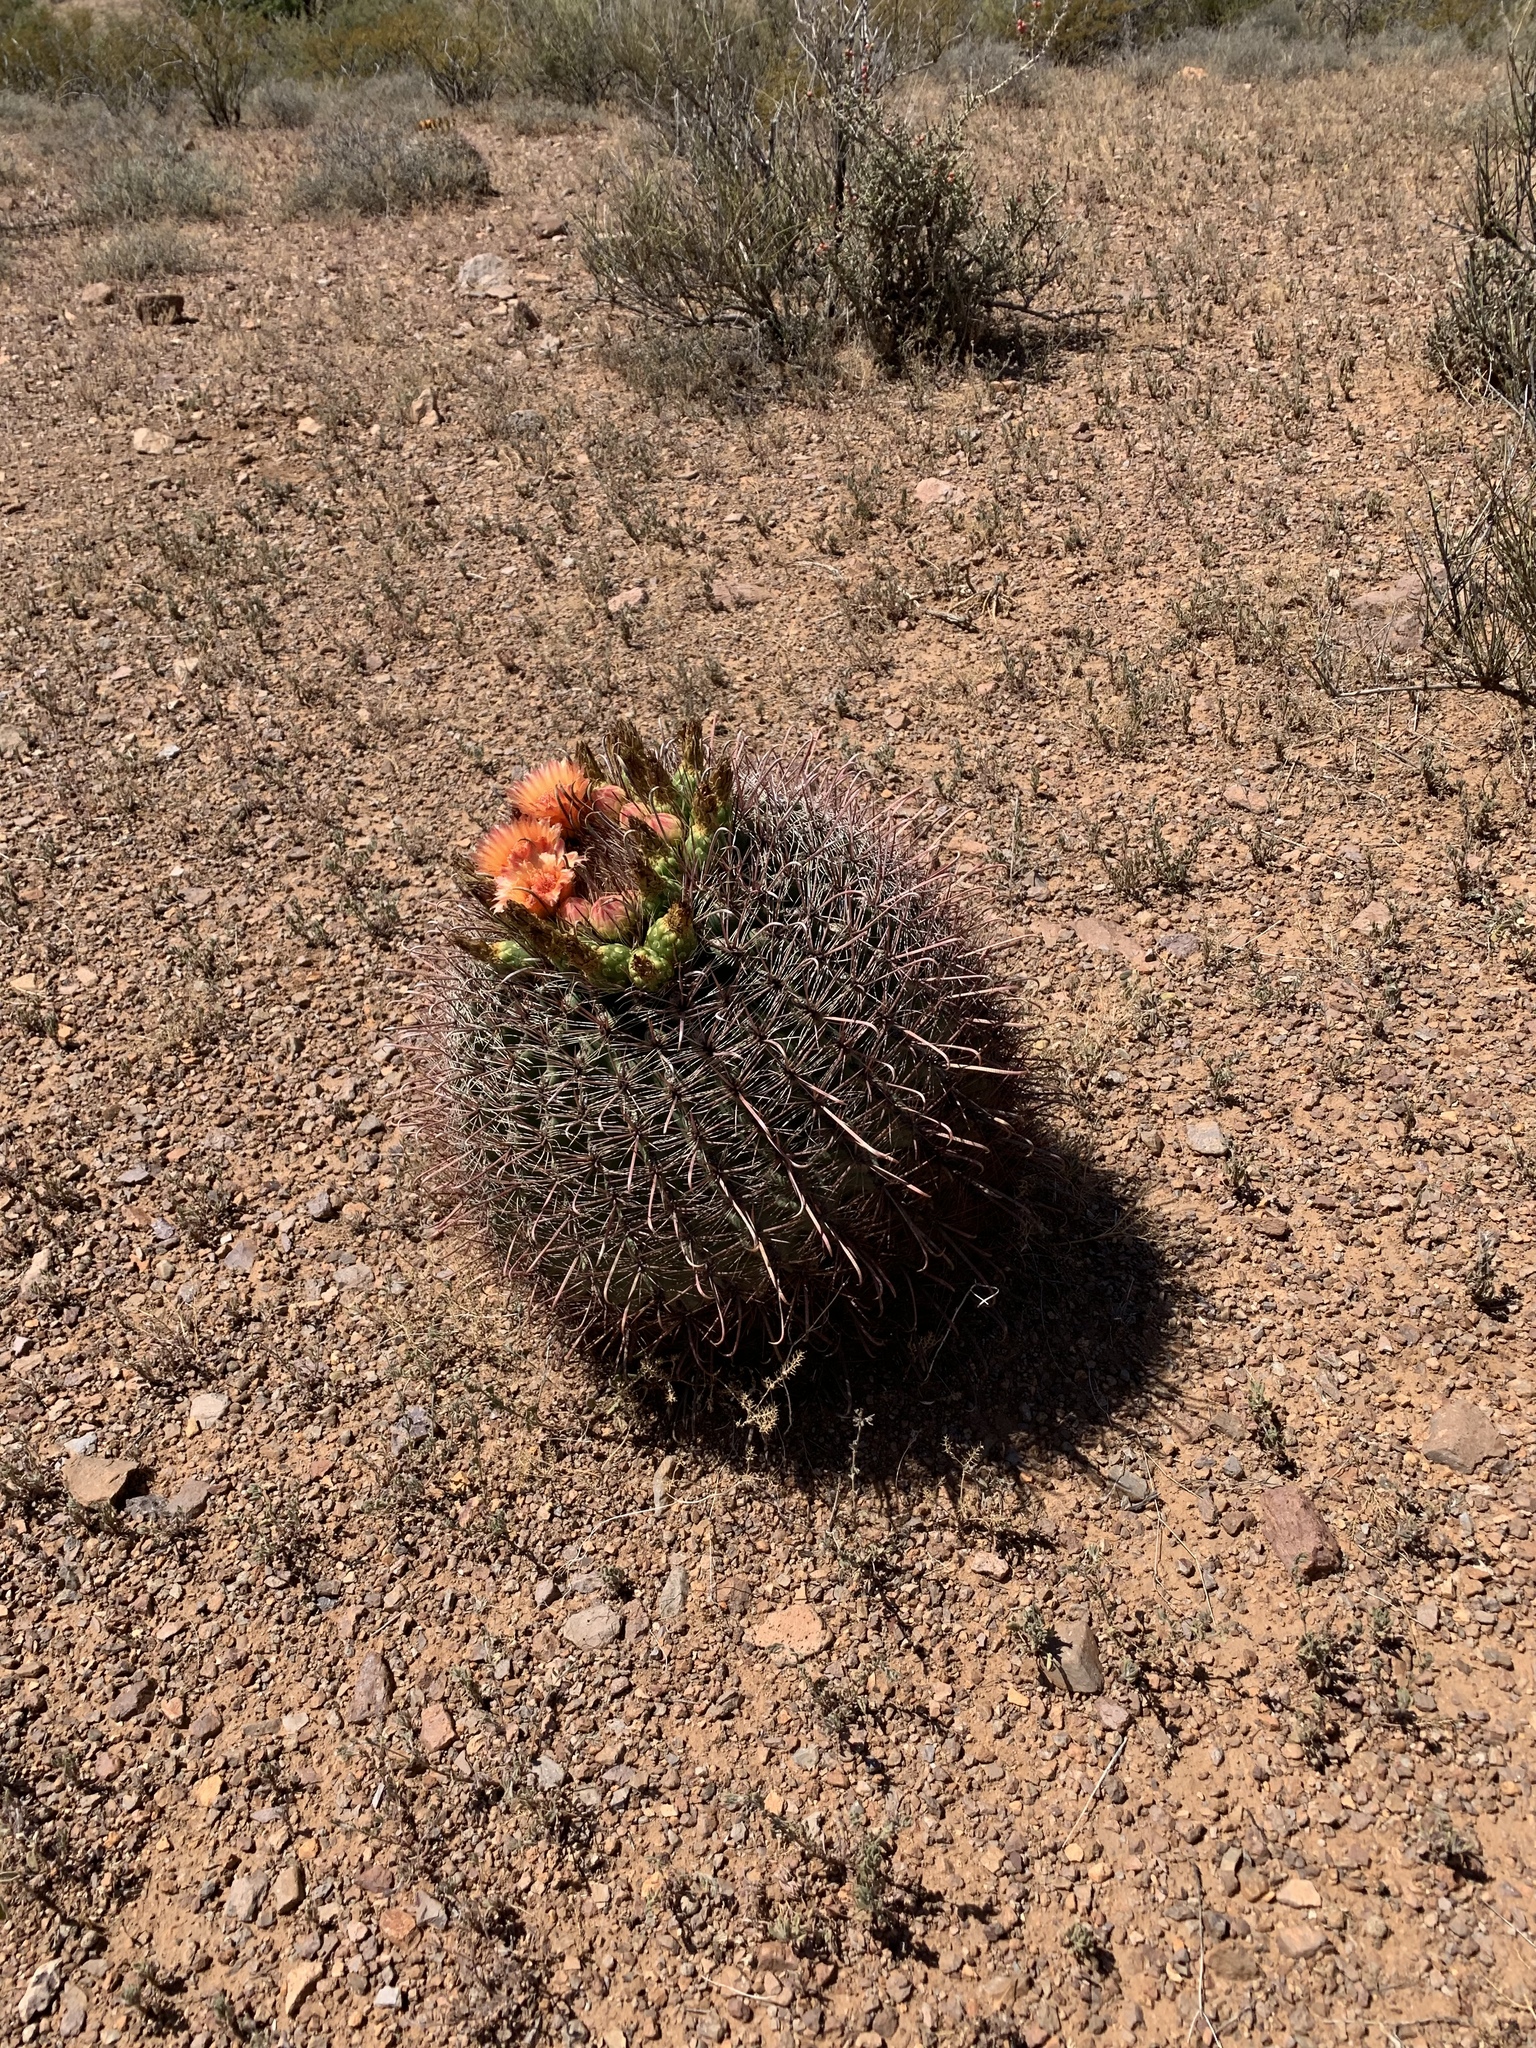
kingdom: Plantae
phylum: Tracheophyta
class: Magnoliopsida
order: Caryophyllales
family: Cactaceae
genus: Ferocactus
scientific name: Ferocactus wislizeni
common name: Candy barrel cactus
